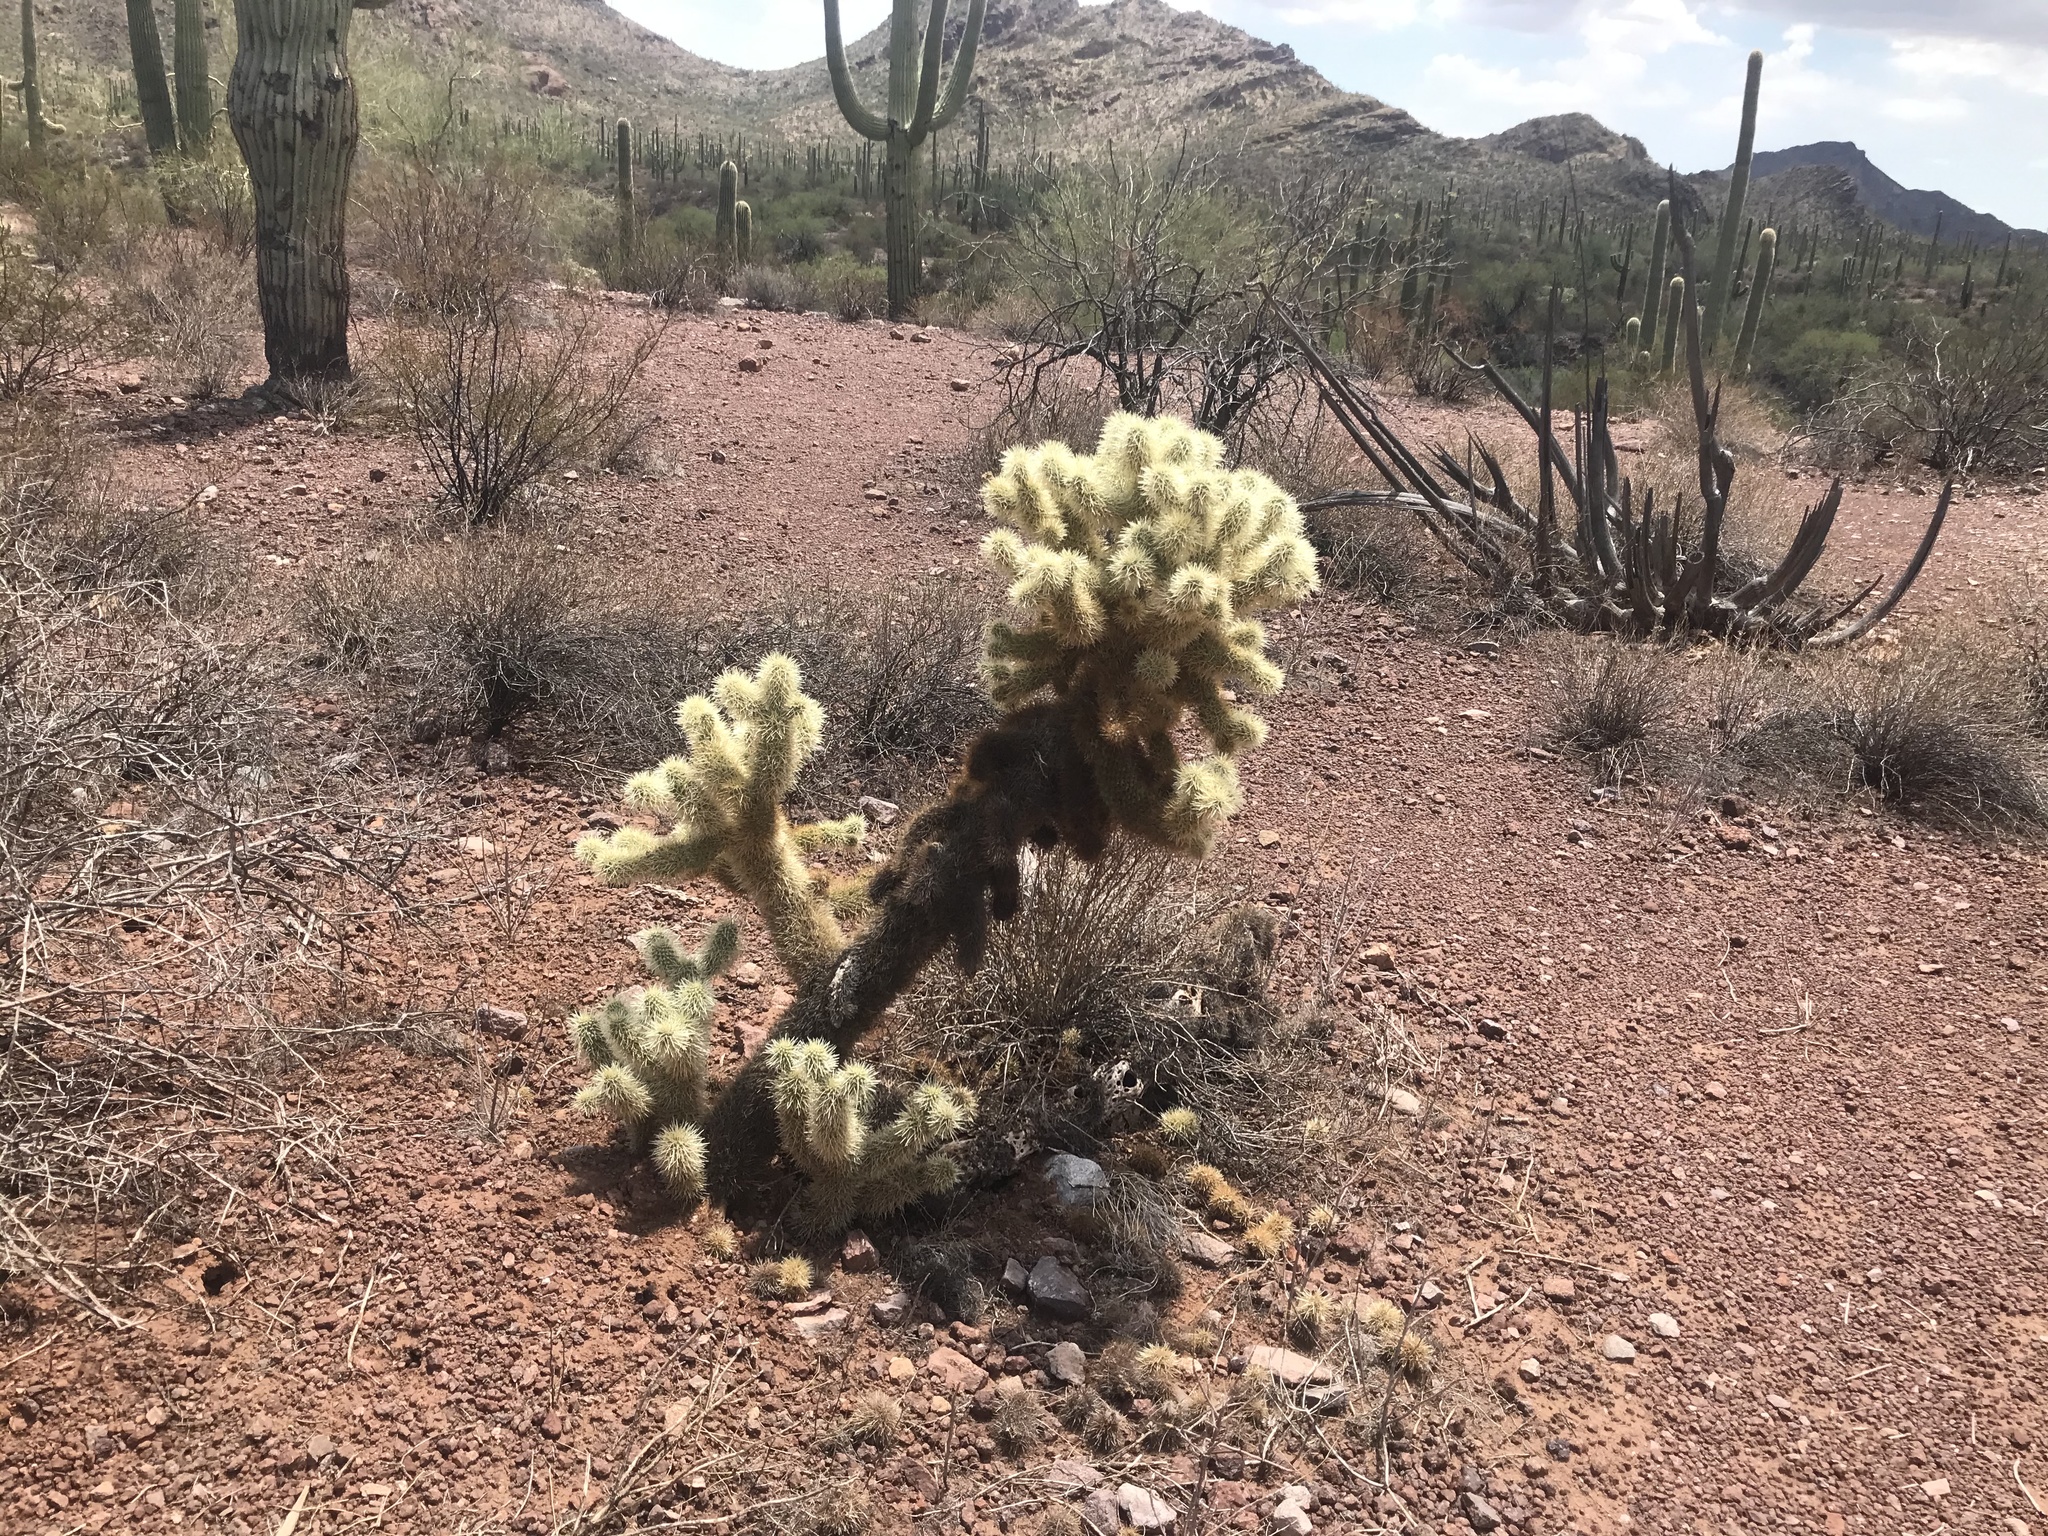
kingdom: Plantae
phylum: Tracheophyta
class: Magnoliopsida
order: Caryophyllales
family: Cactaceae
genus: Cylindropuntia
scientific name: Cylindropuntia fosbergii
